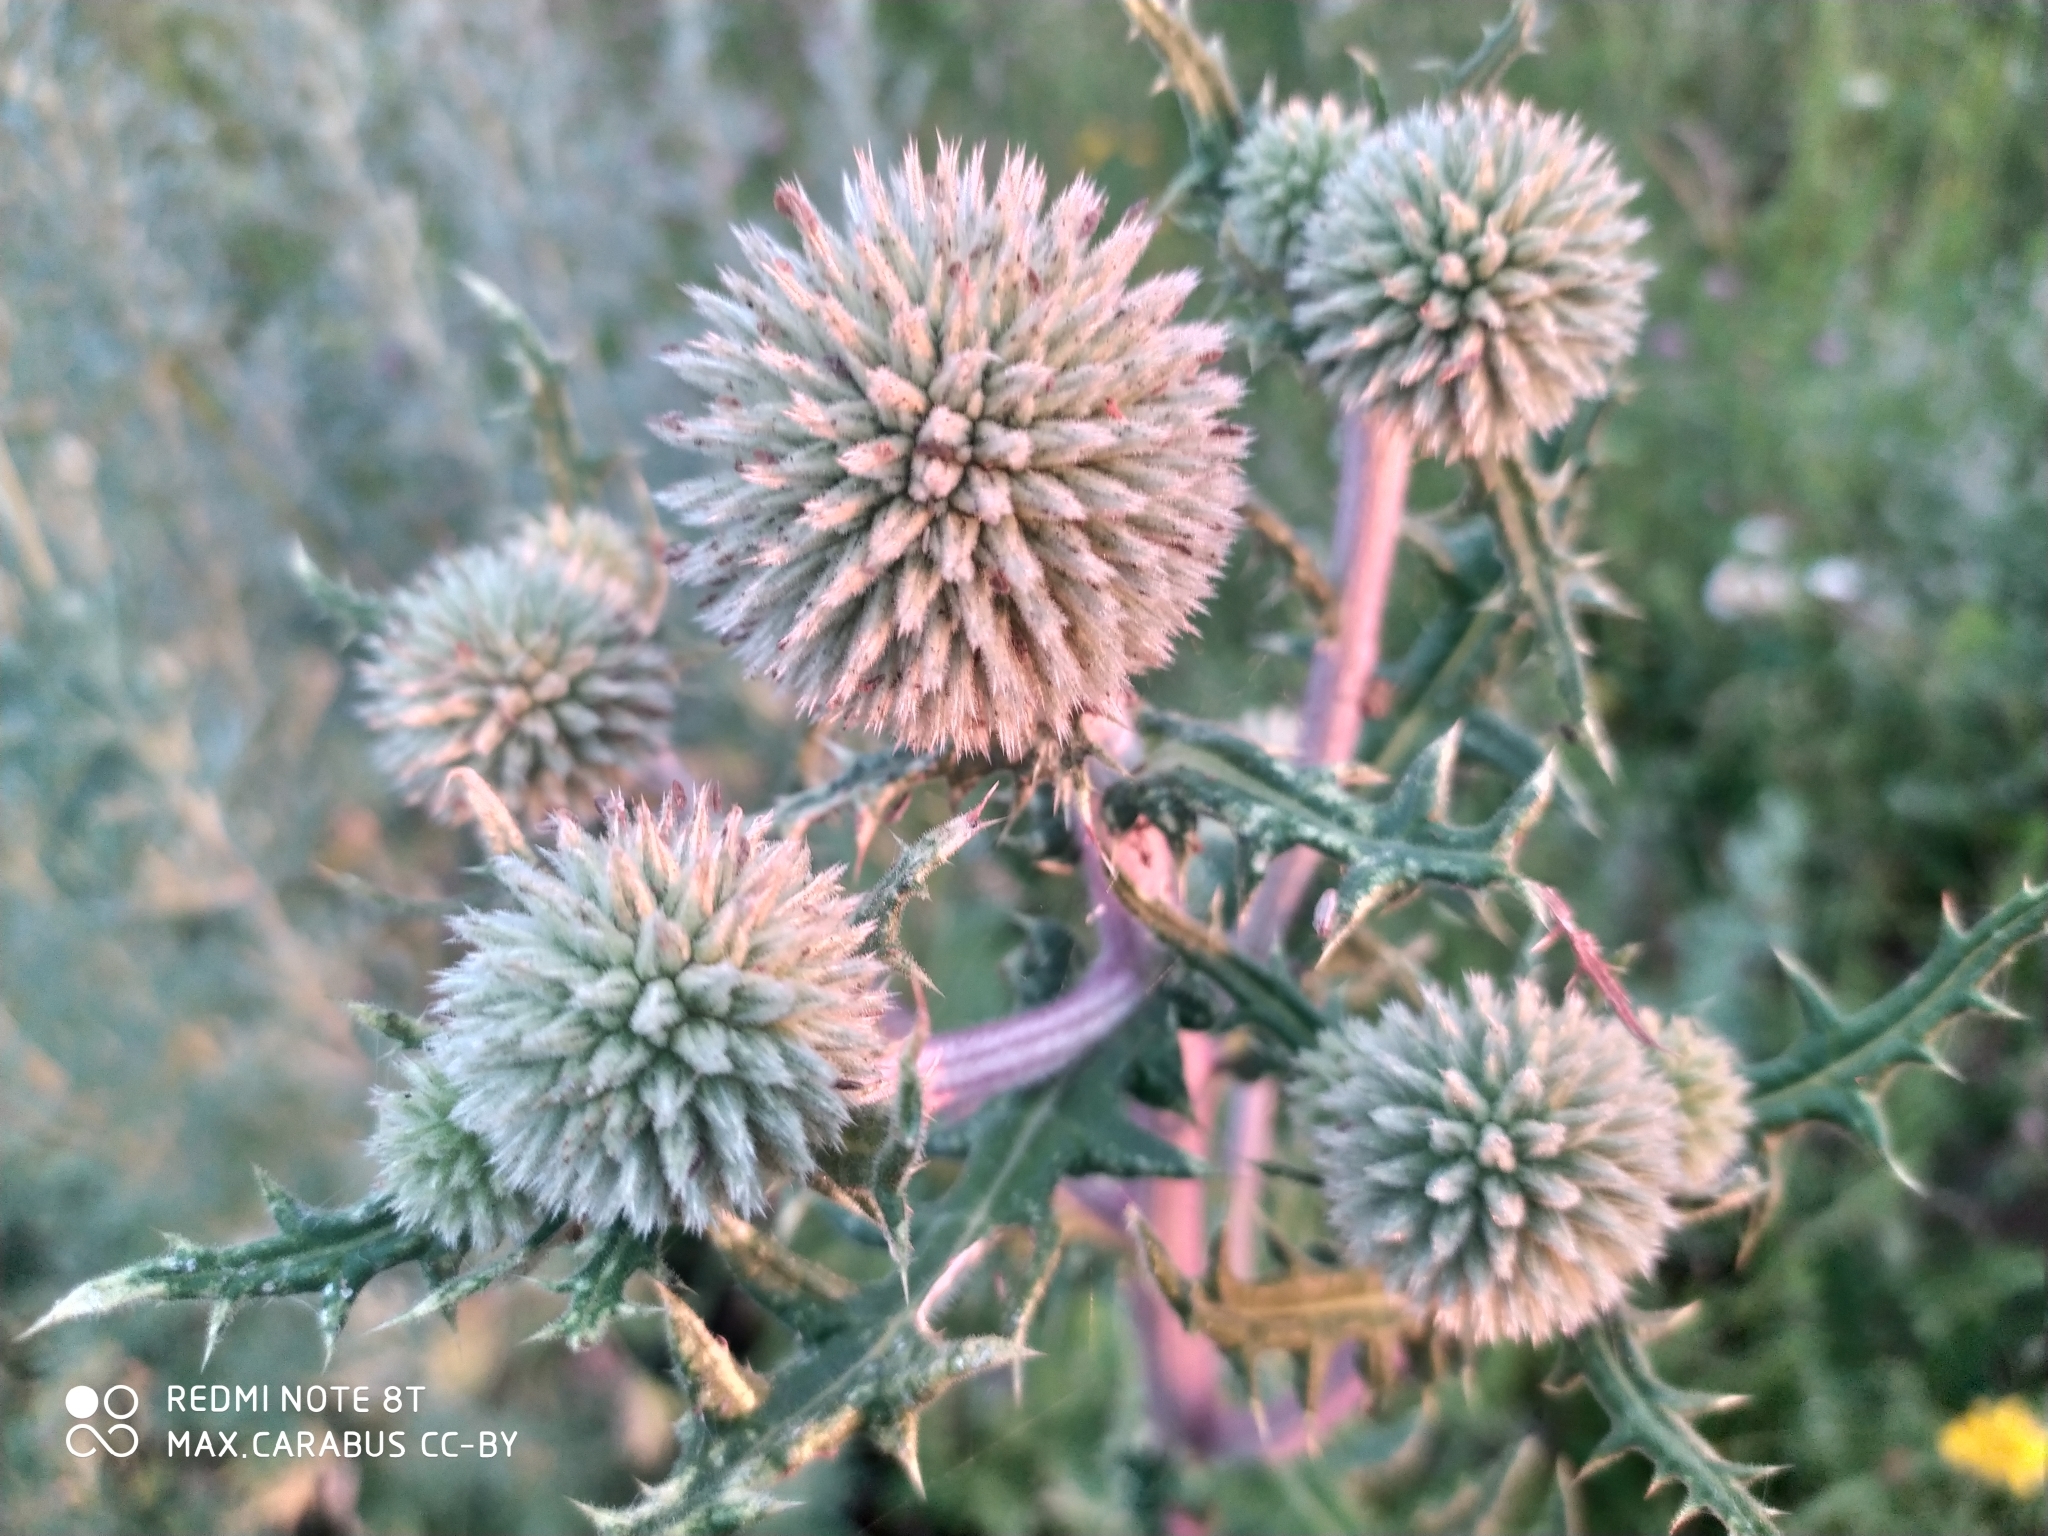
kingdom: Plantae
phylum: Tracheophyta
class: Magnoliopsida
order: Asterales
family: Asteraceae
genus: Echinops
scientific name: Echinops sphaerocephalus
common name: Glandular globe-thistle
